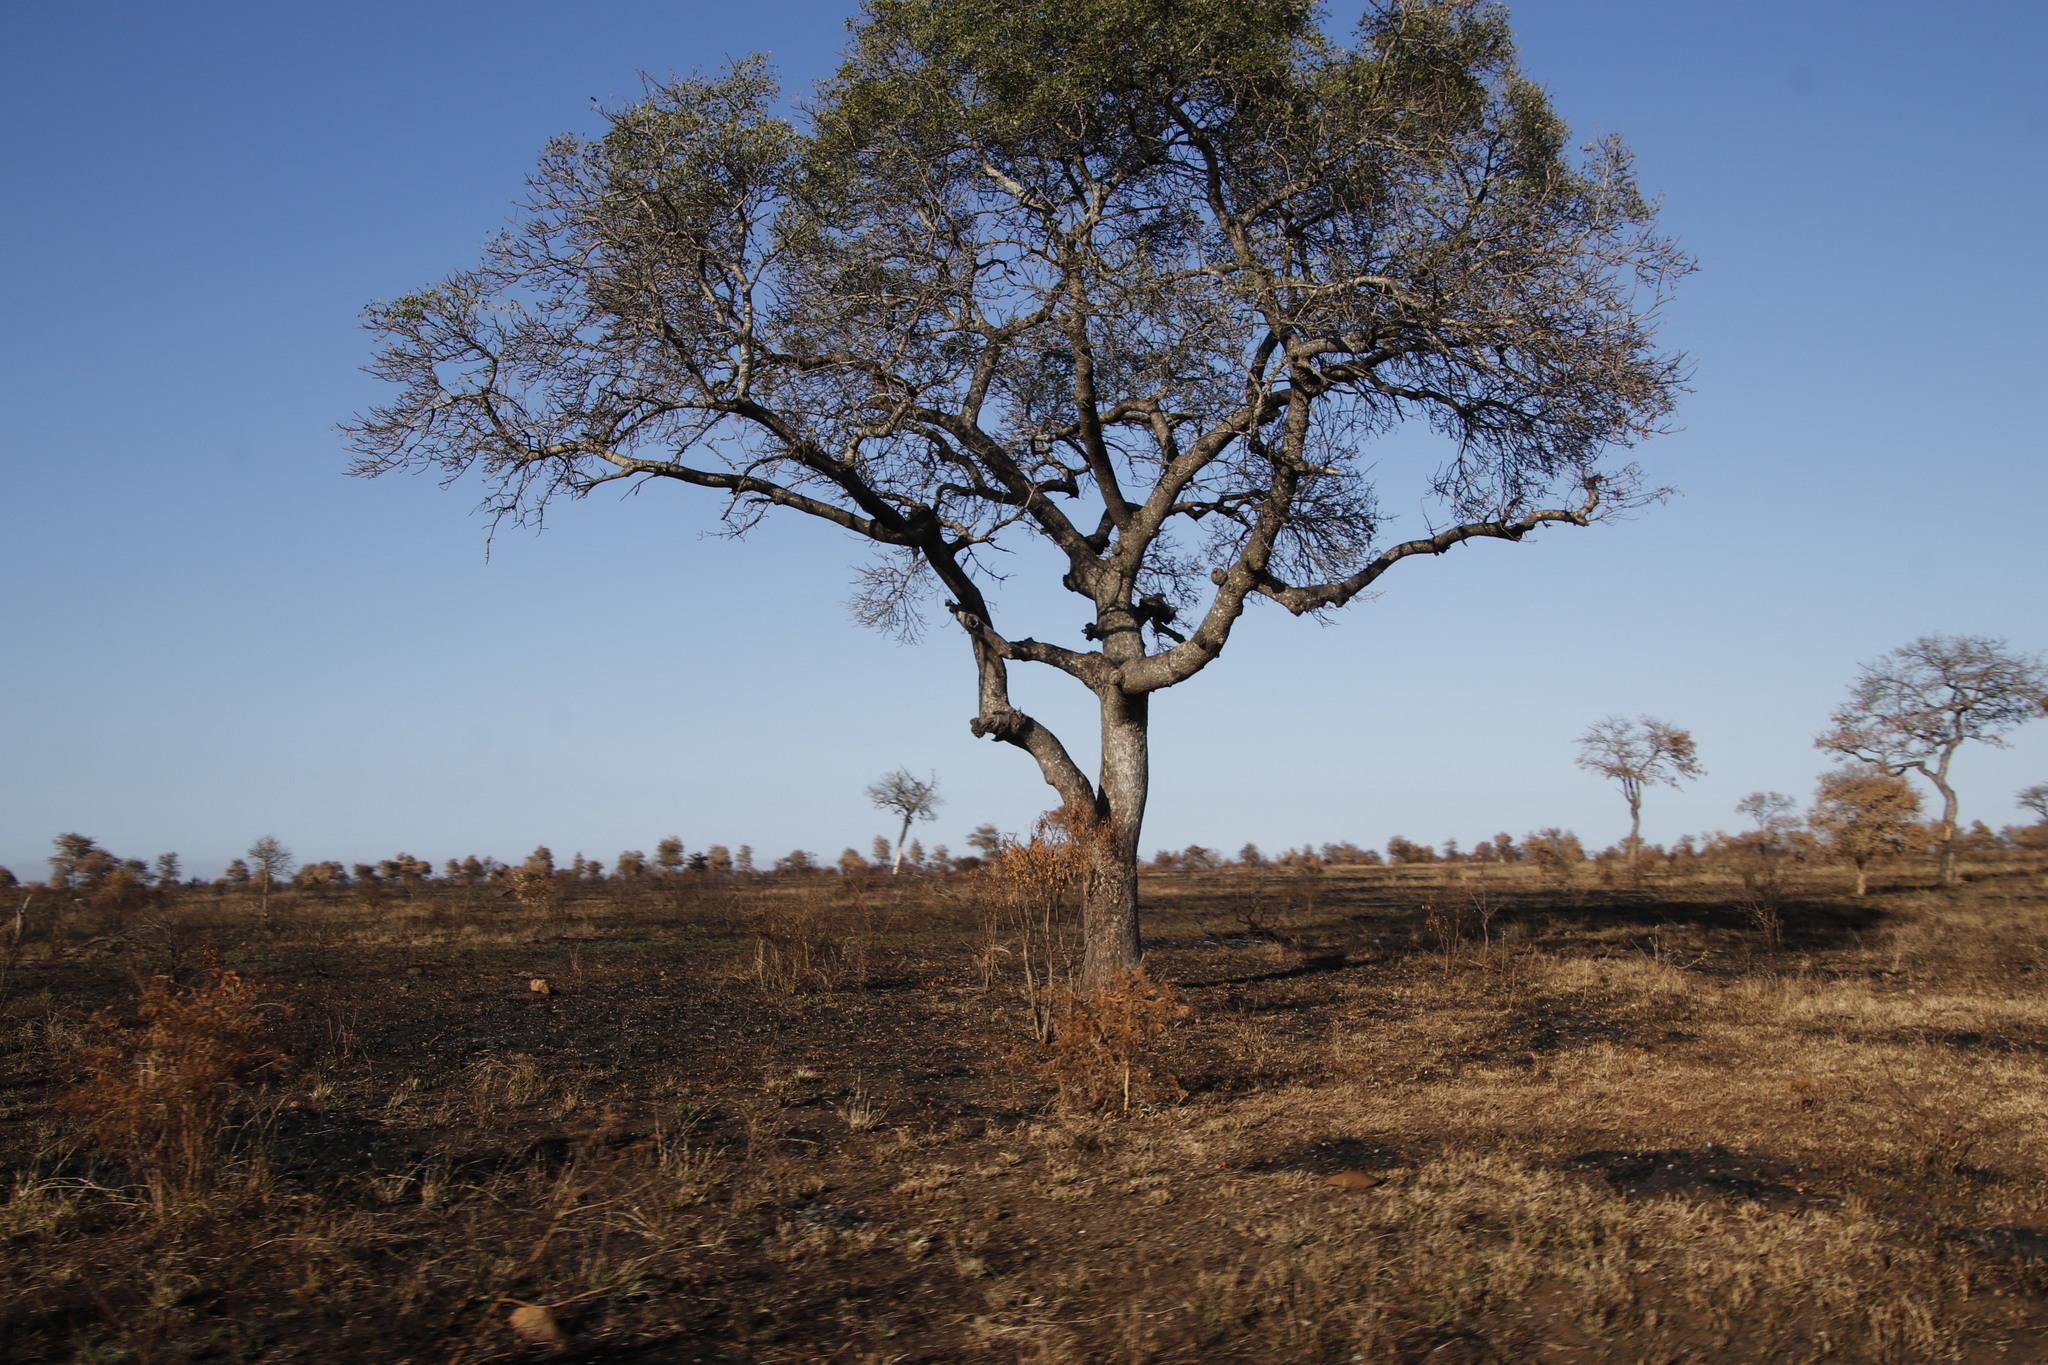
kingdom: Plantae
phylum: Tracheophyta
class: Magnoliopsida
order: Sapindales
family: Anacardiaceae
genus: Sclerocarya
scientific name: Sclerocarya birrea
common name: Marula
